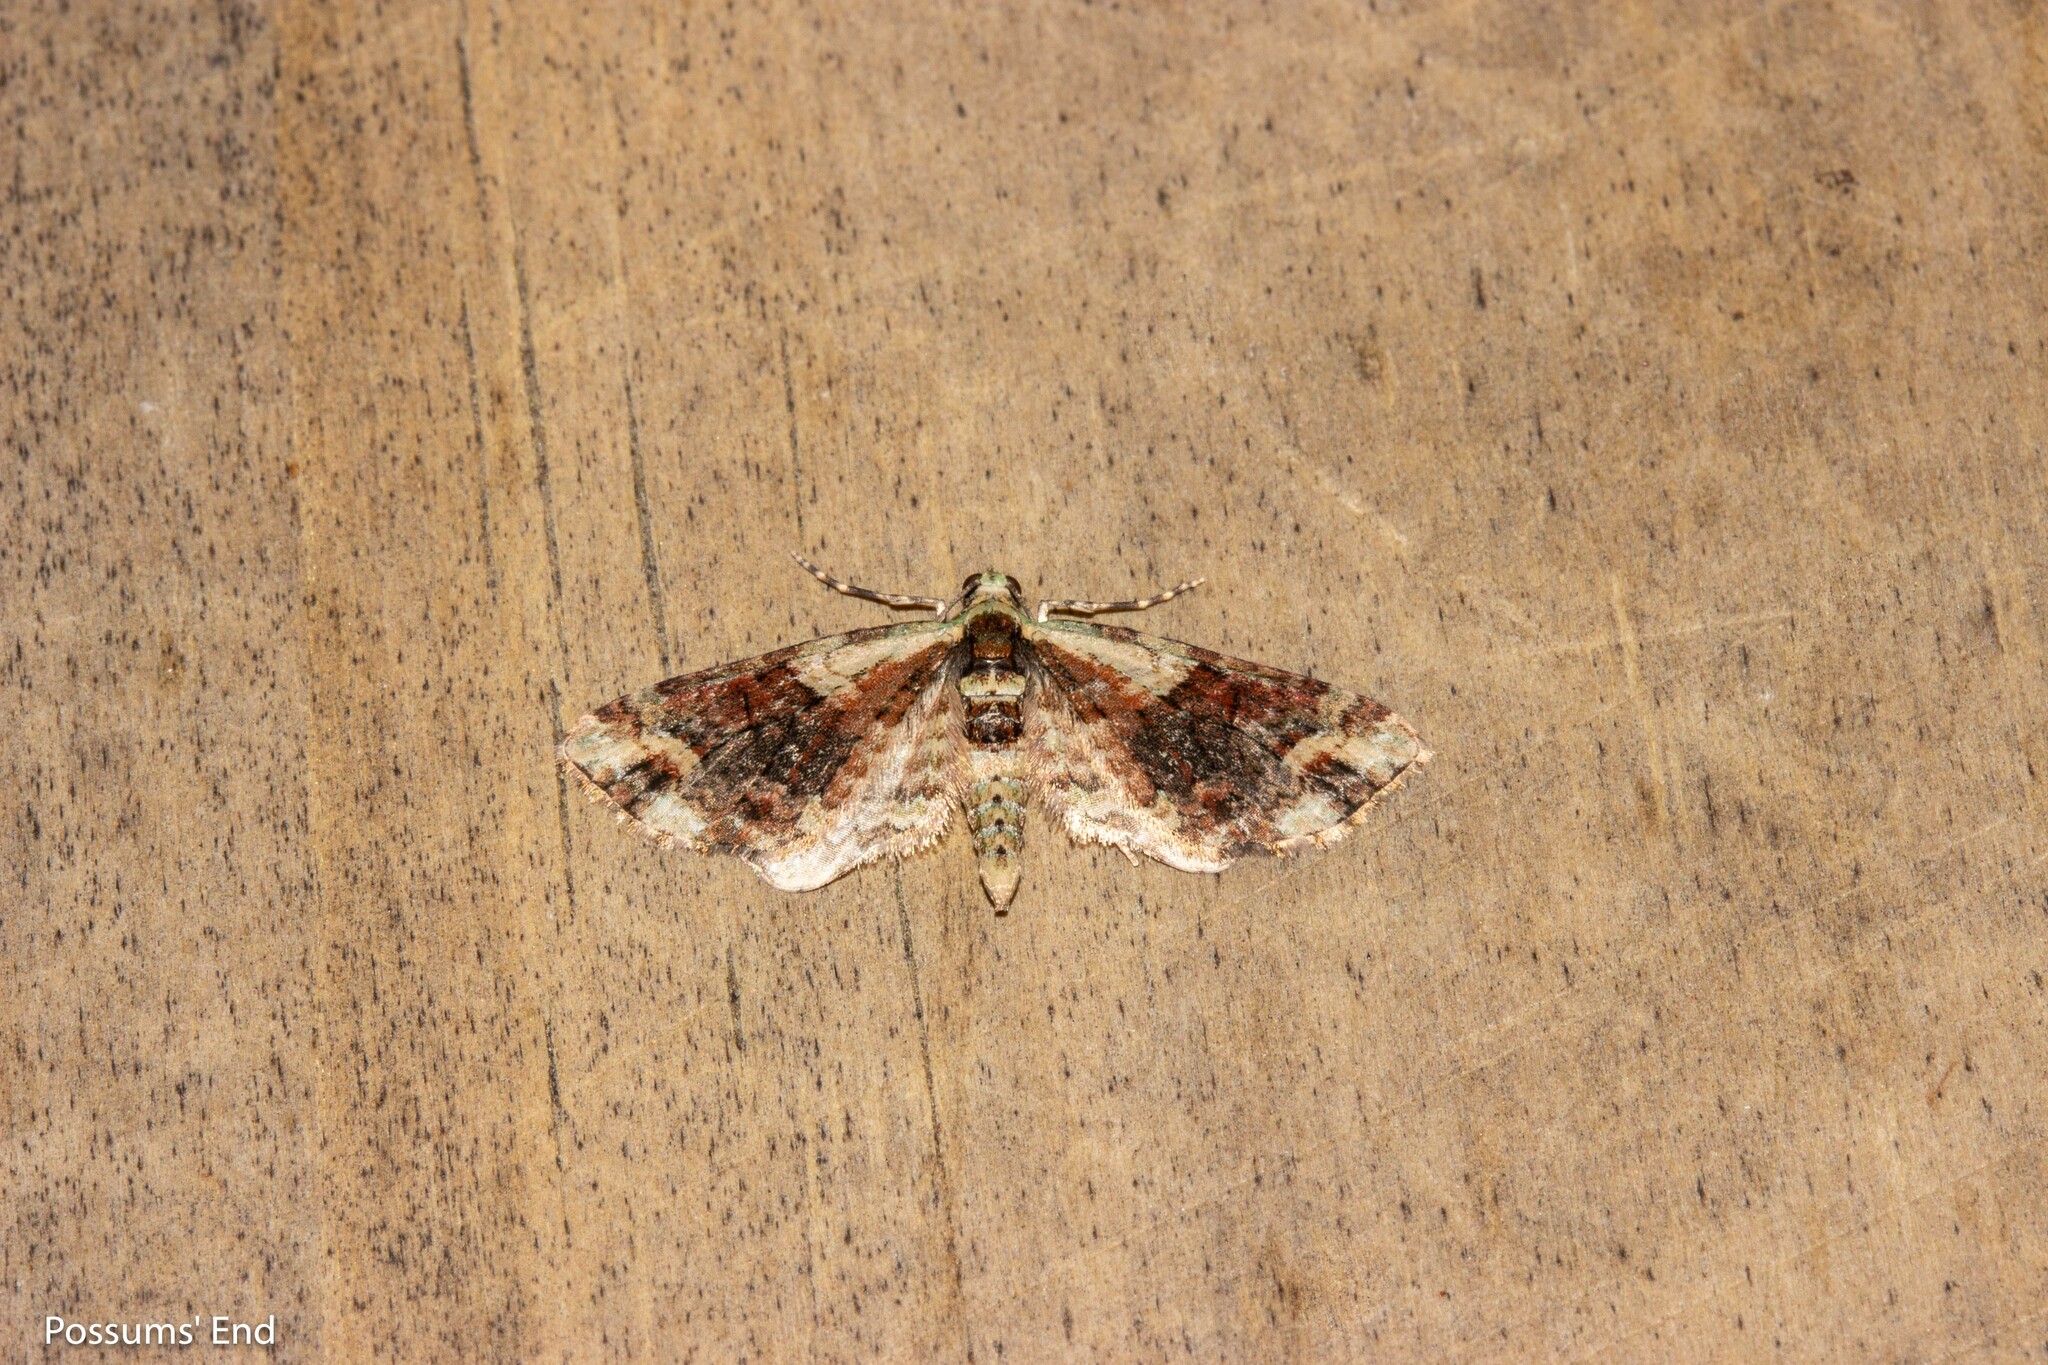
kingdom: Animalia
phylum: Arthropoda
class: Insecta
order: Lepidoptera
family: Geometridae
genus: Idaea
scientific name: Idaea mutanda
